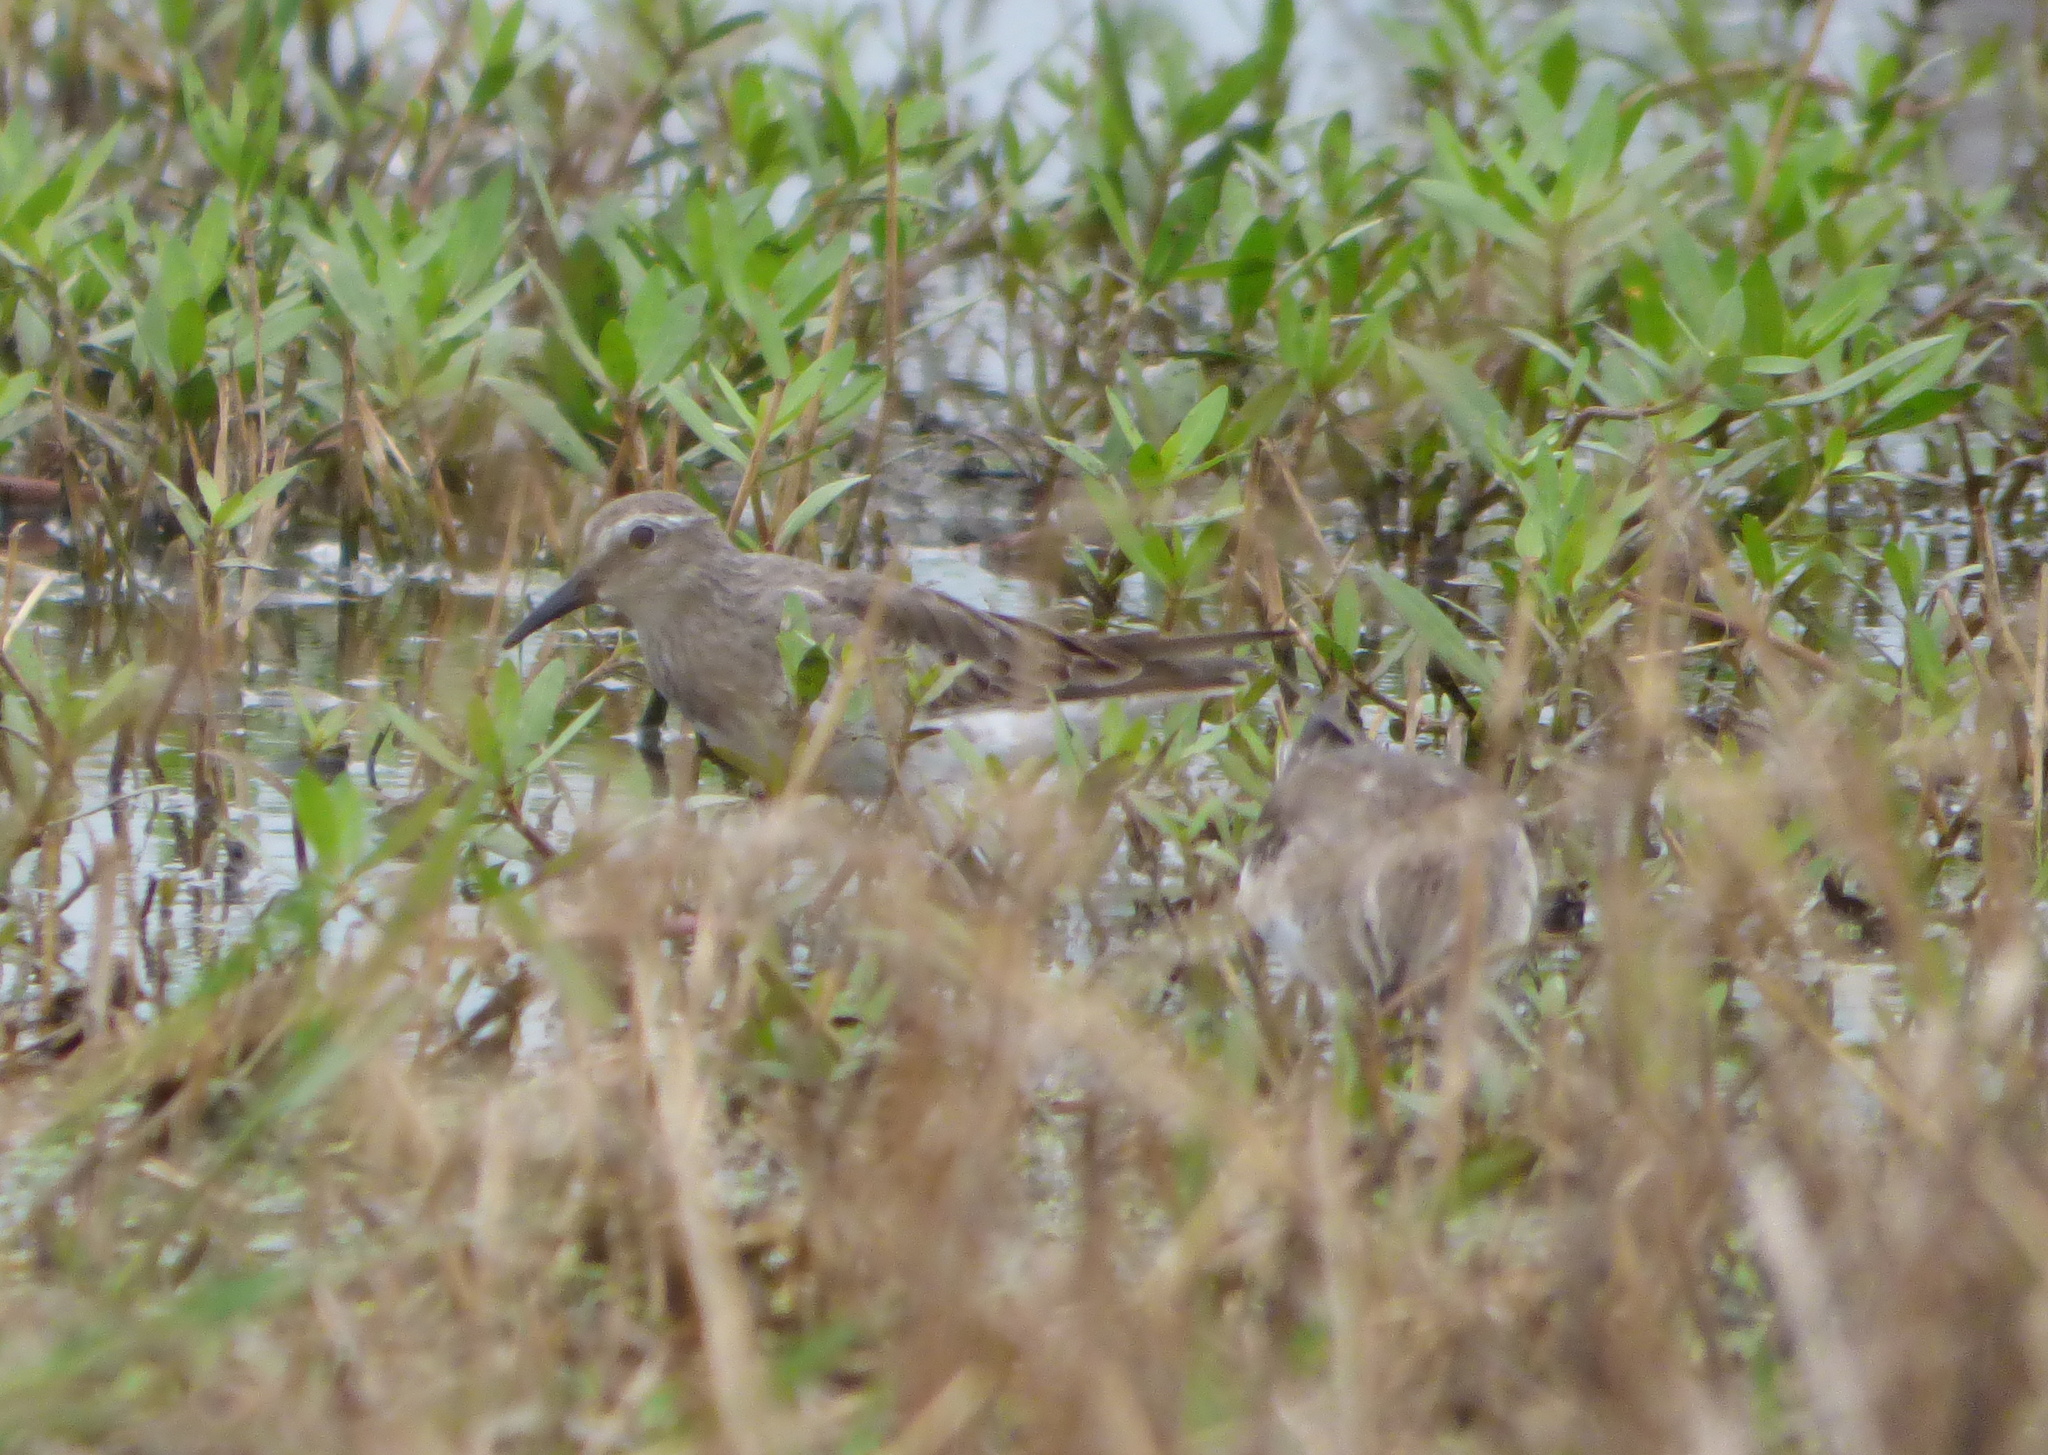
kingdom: Animalia
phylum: Chordata
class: Aves
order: Charadriiformes
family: Scolopacidae
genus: Calidris
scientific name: Calidris fuscicollis
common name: White-rumped sandpiper
